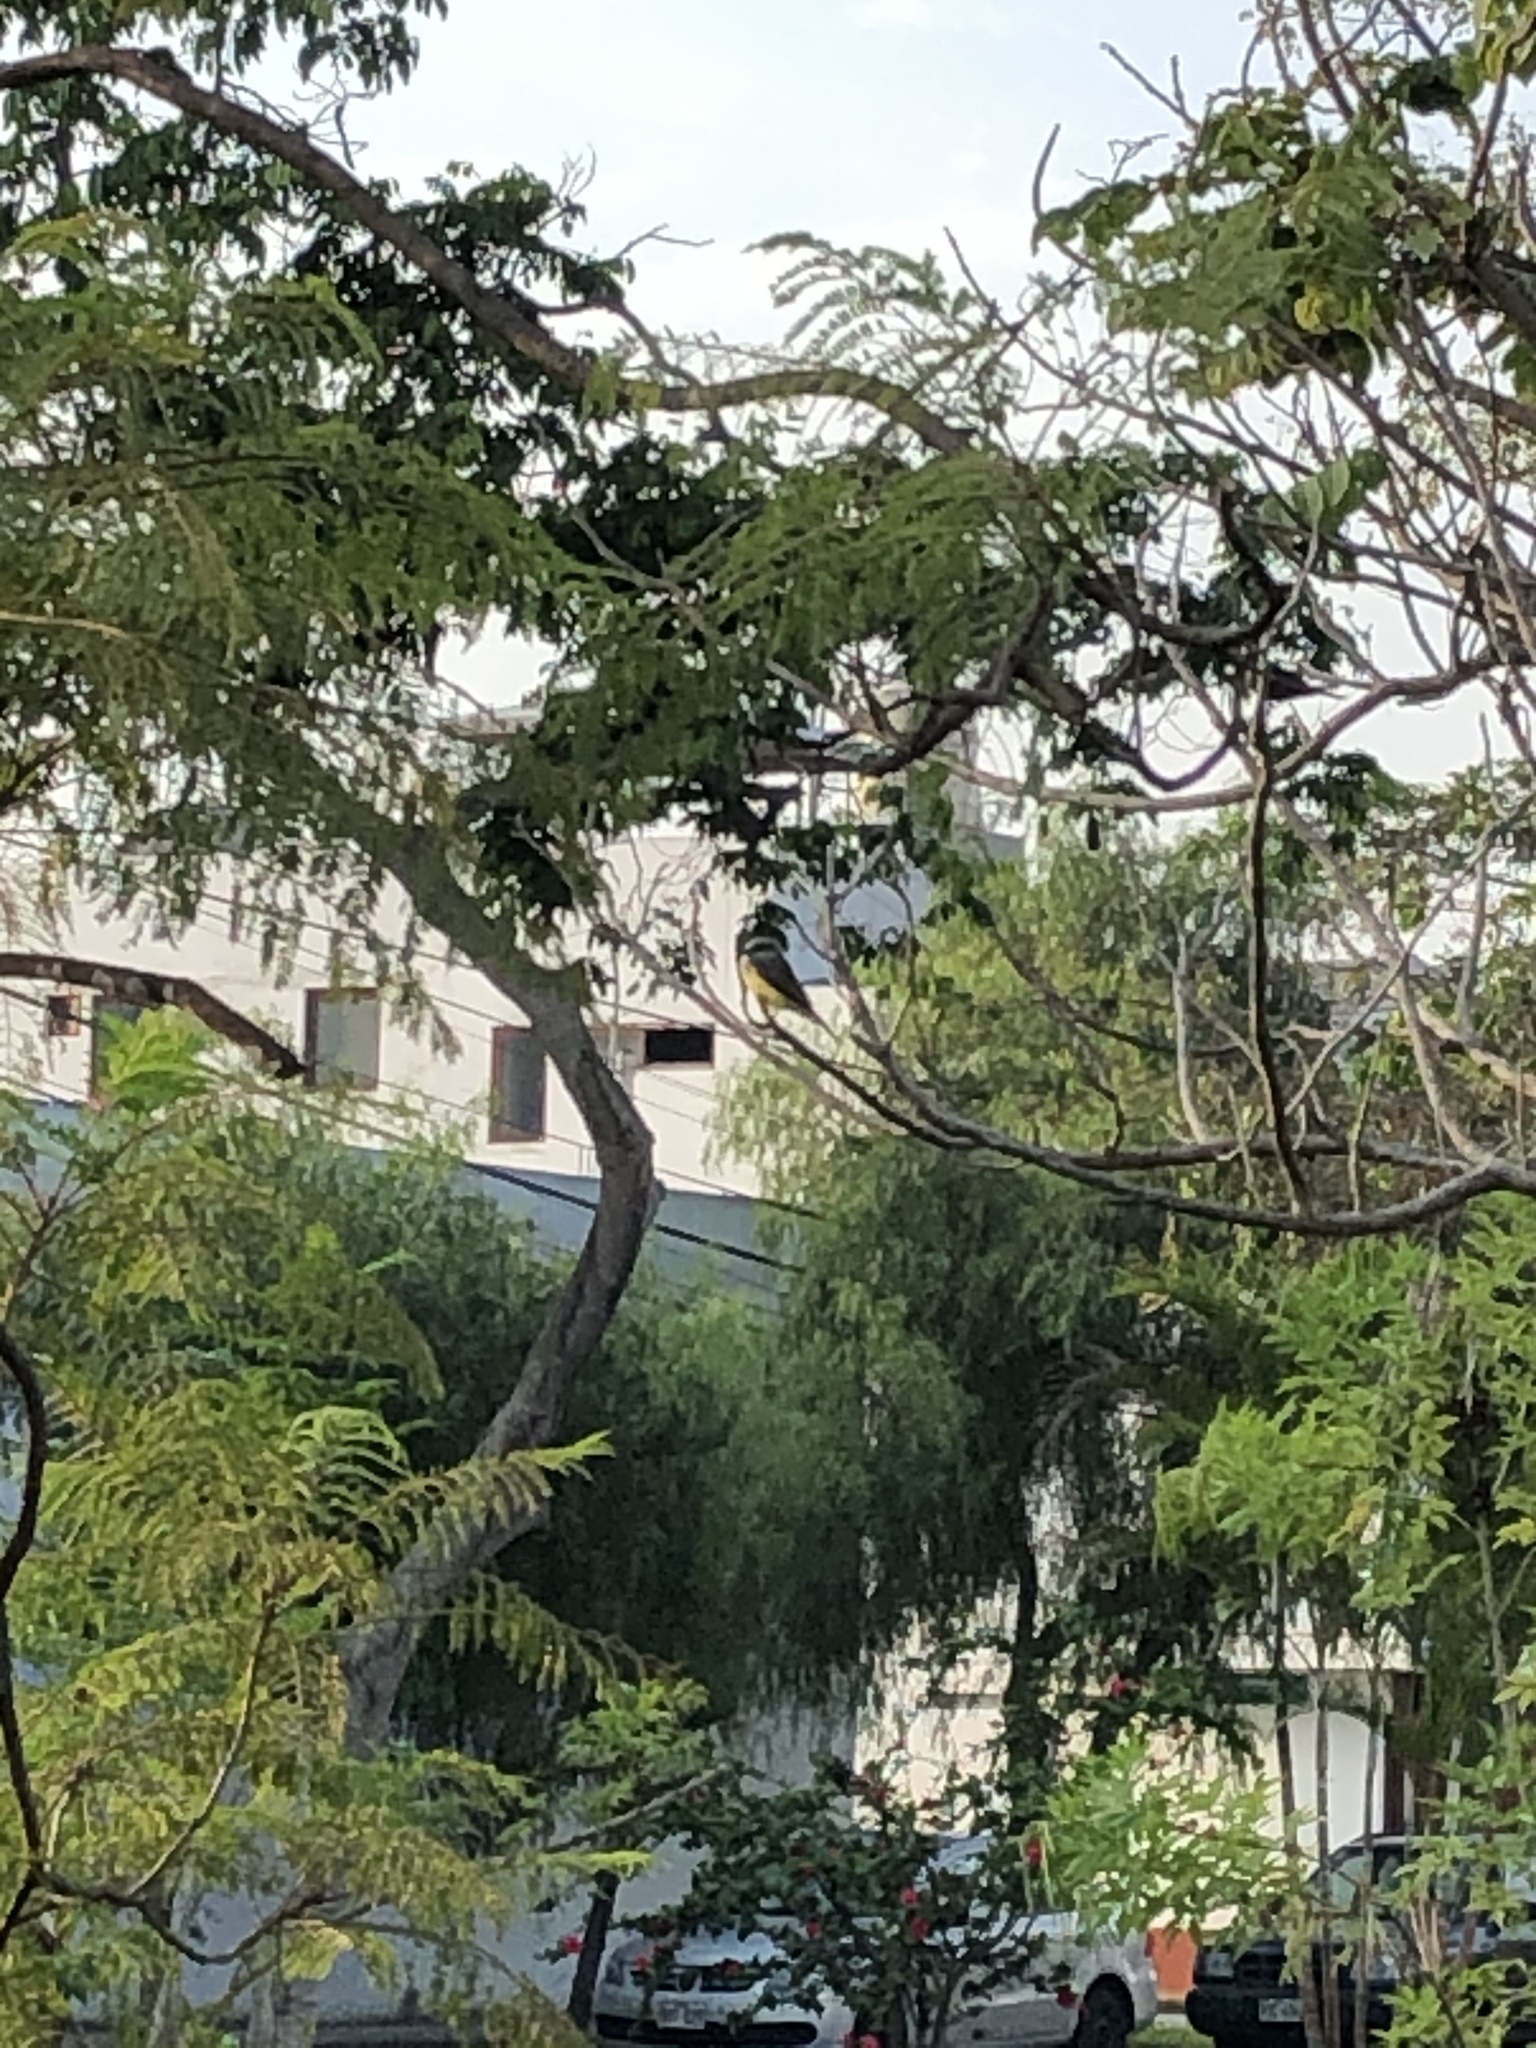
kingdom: Animalia
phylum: Chordata
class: Aves
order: Passeriformes
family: Tyrannidae
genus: Tyrannus
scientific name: Tyrannus melancholicus
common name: Tropical kingbird
